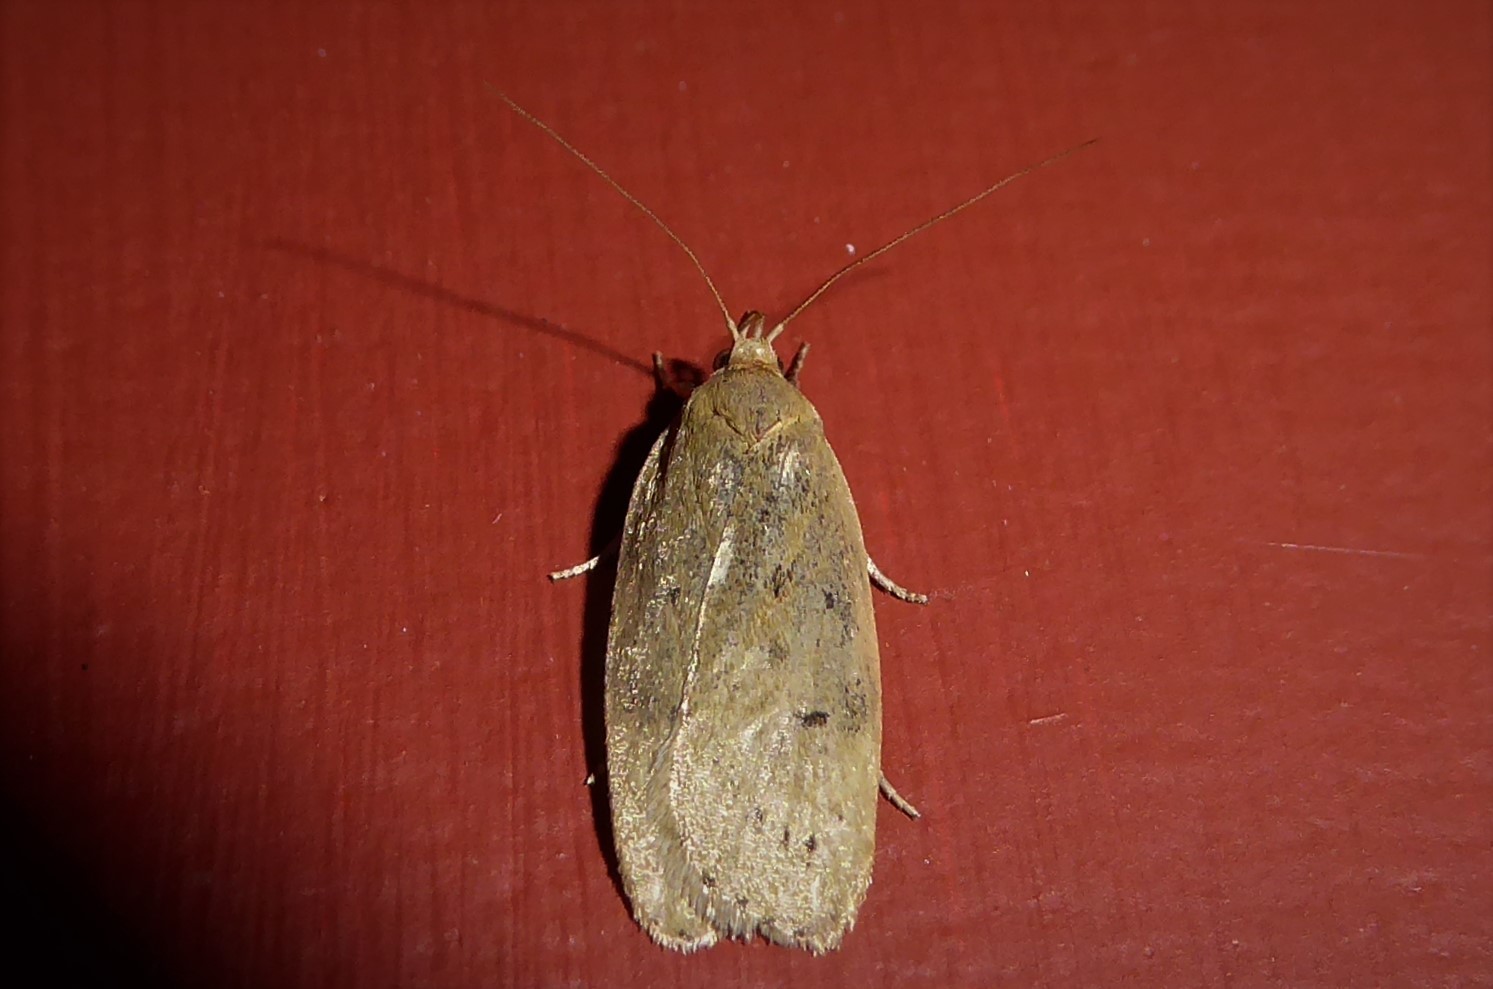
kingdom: Animalia
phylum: Arthropoda
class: Insecta
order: Lepidoptera
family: Depressariidae
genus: Phaeosaces
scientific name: Phaeosaces coarctatella
